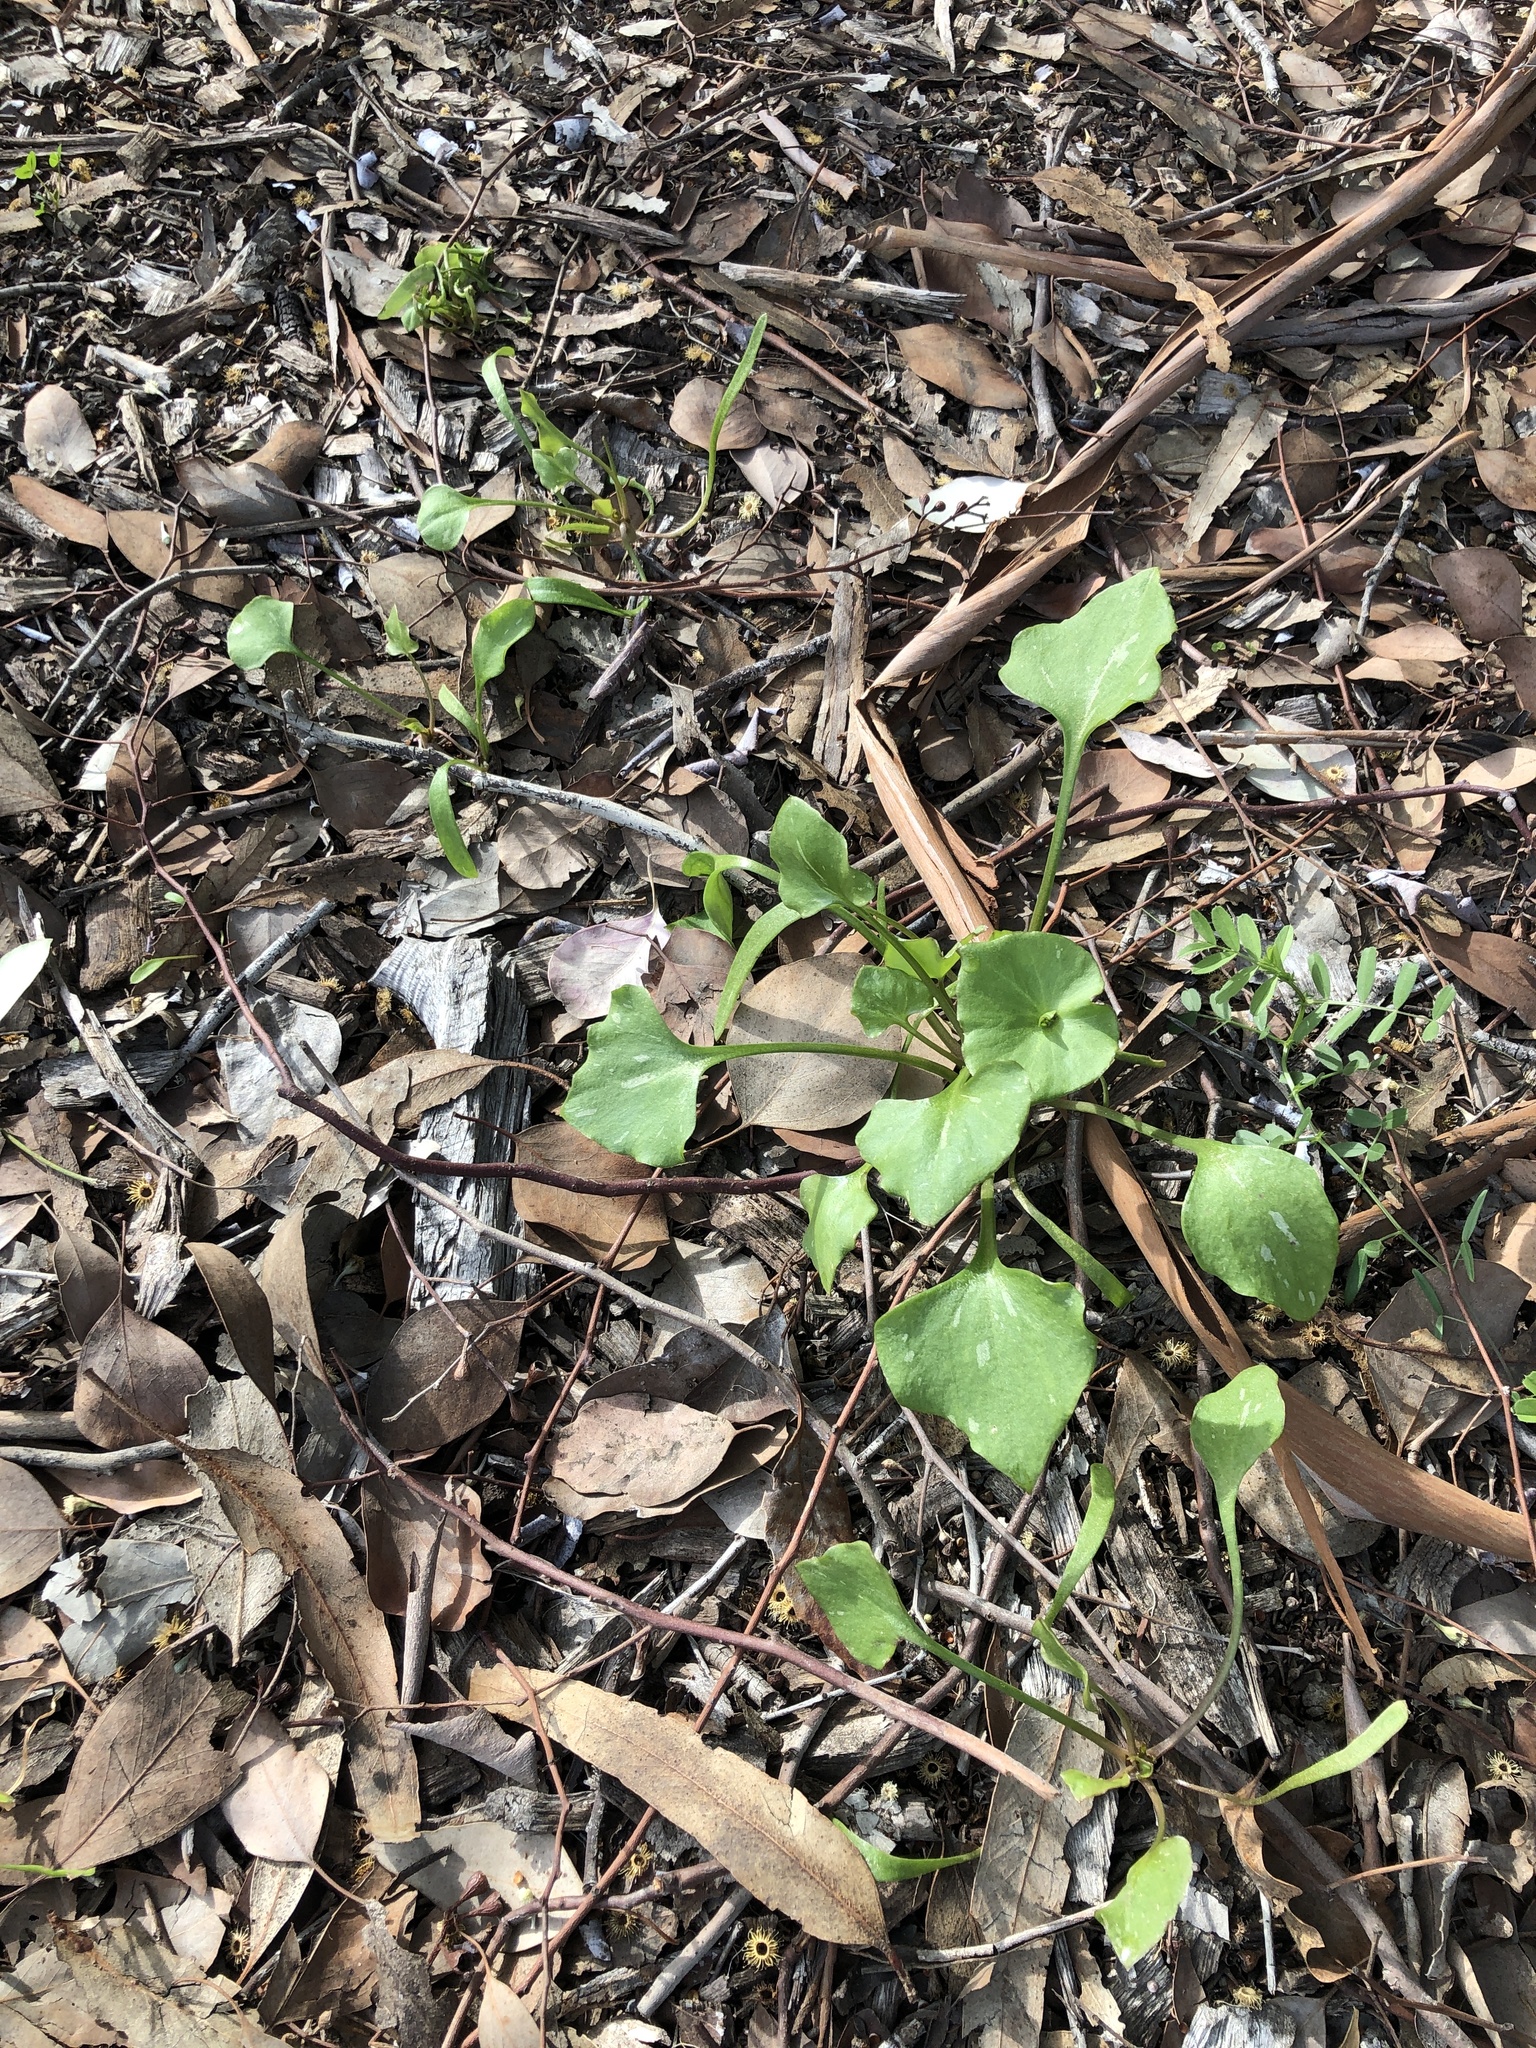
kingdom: Plantae
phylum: Tracheophyta
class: Magnoliopsida
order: Caryophyllales
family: Montiaceae
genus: Claytonia
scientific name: Claytonia perfoliata
